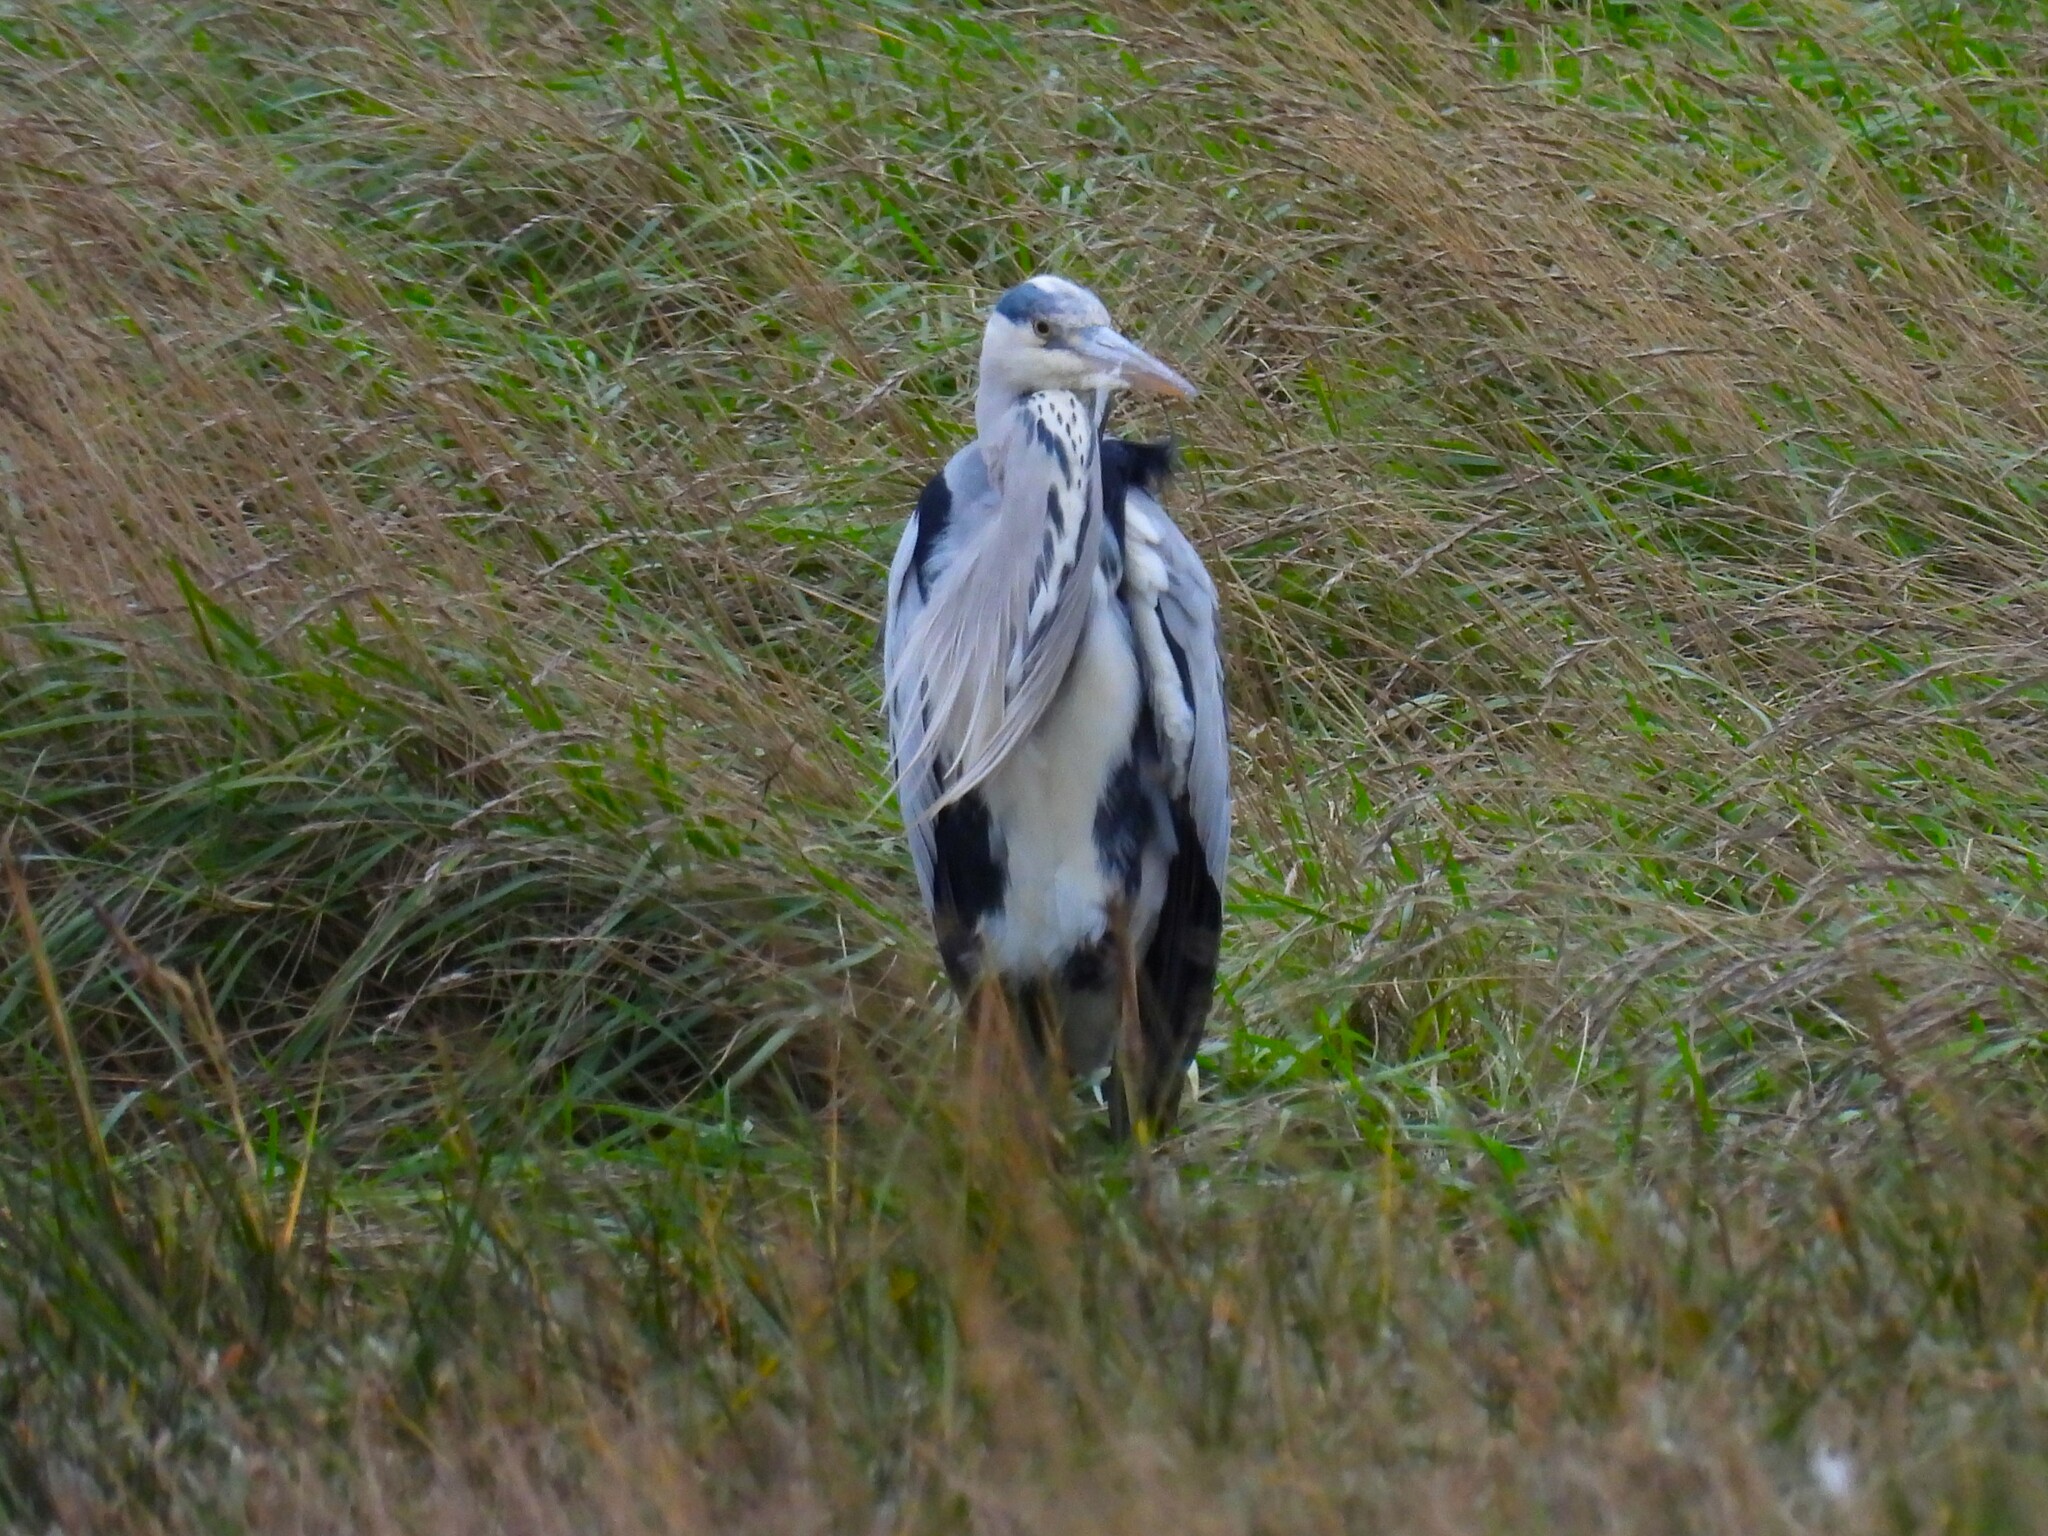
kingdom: Animalia
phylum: Chordata
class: Aves
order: Pelecaniformes
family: Ardeidae
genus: Ardea
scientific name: Ardea cinerea
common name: Grey heron
